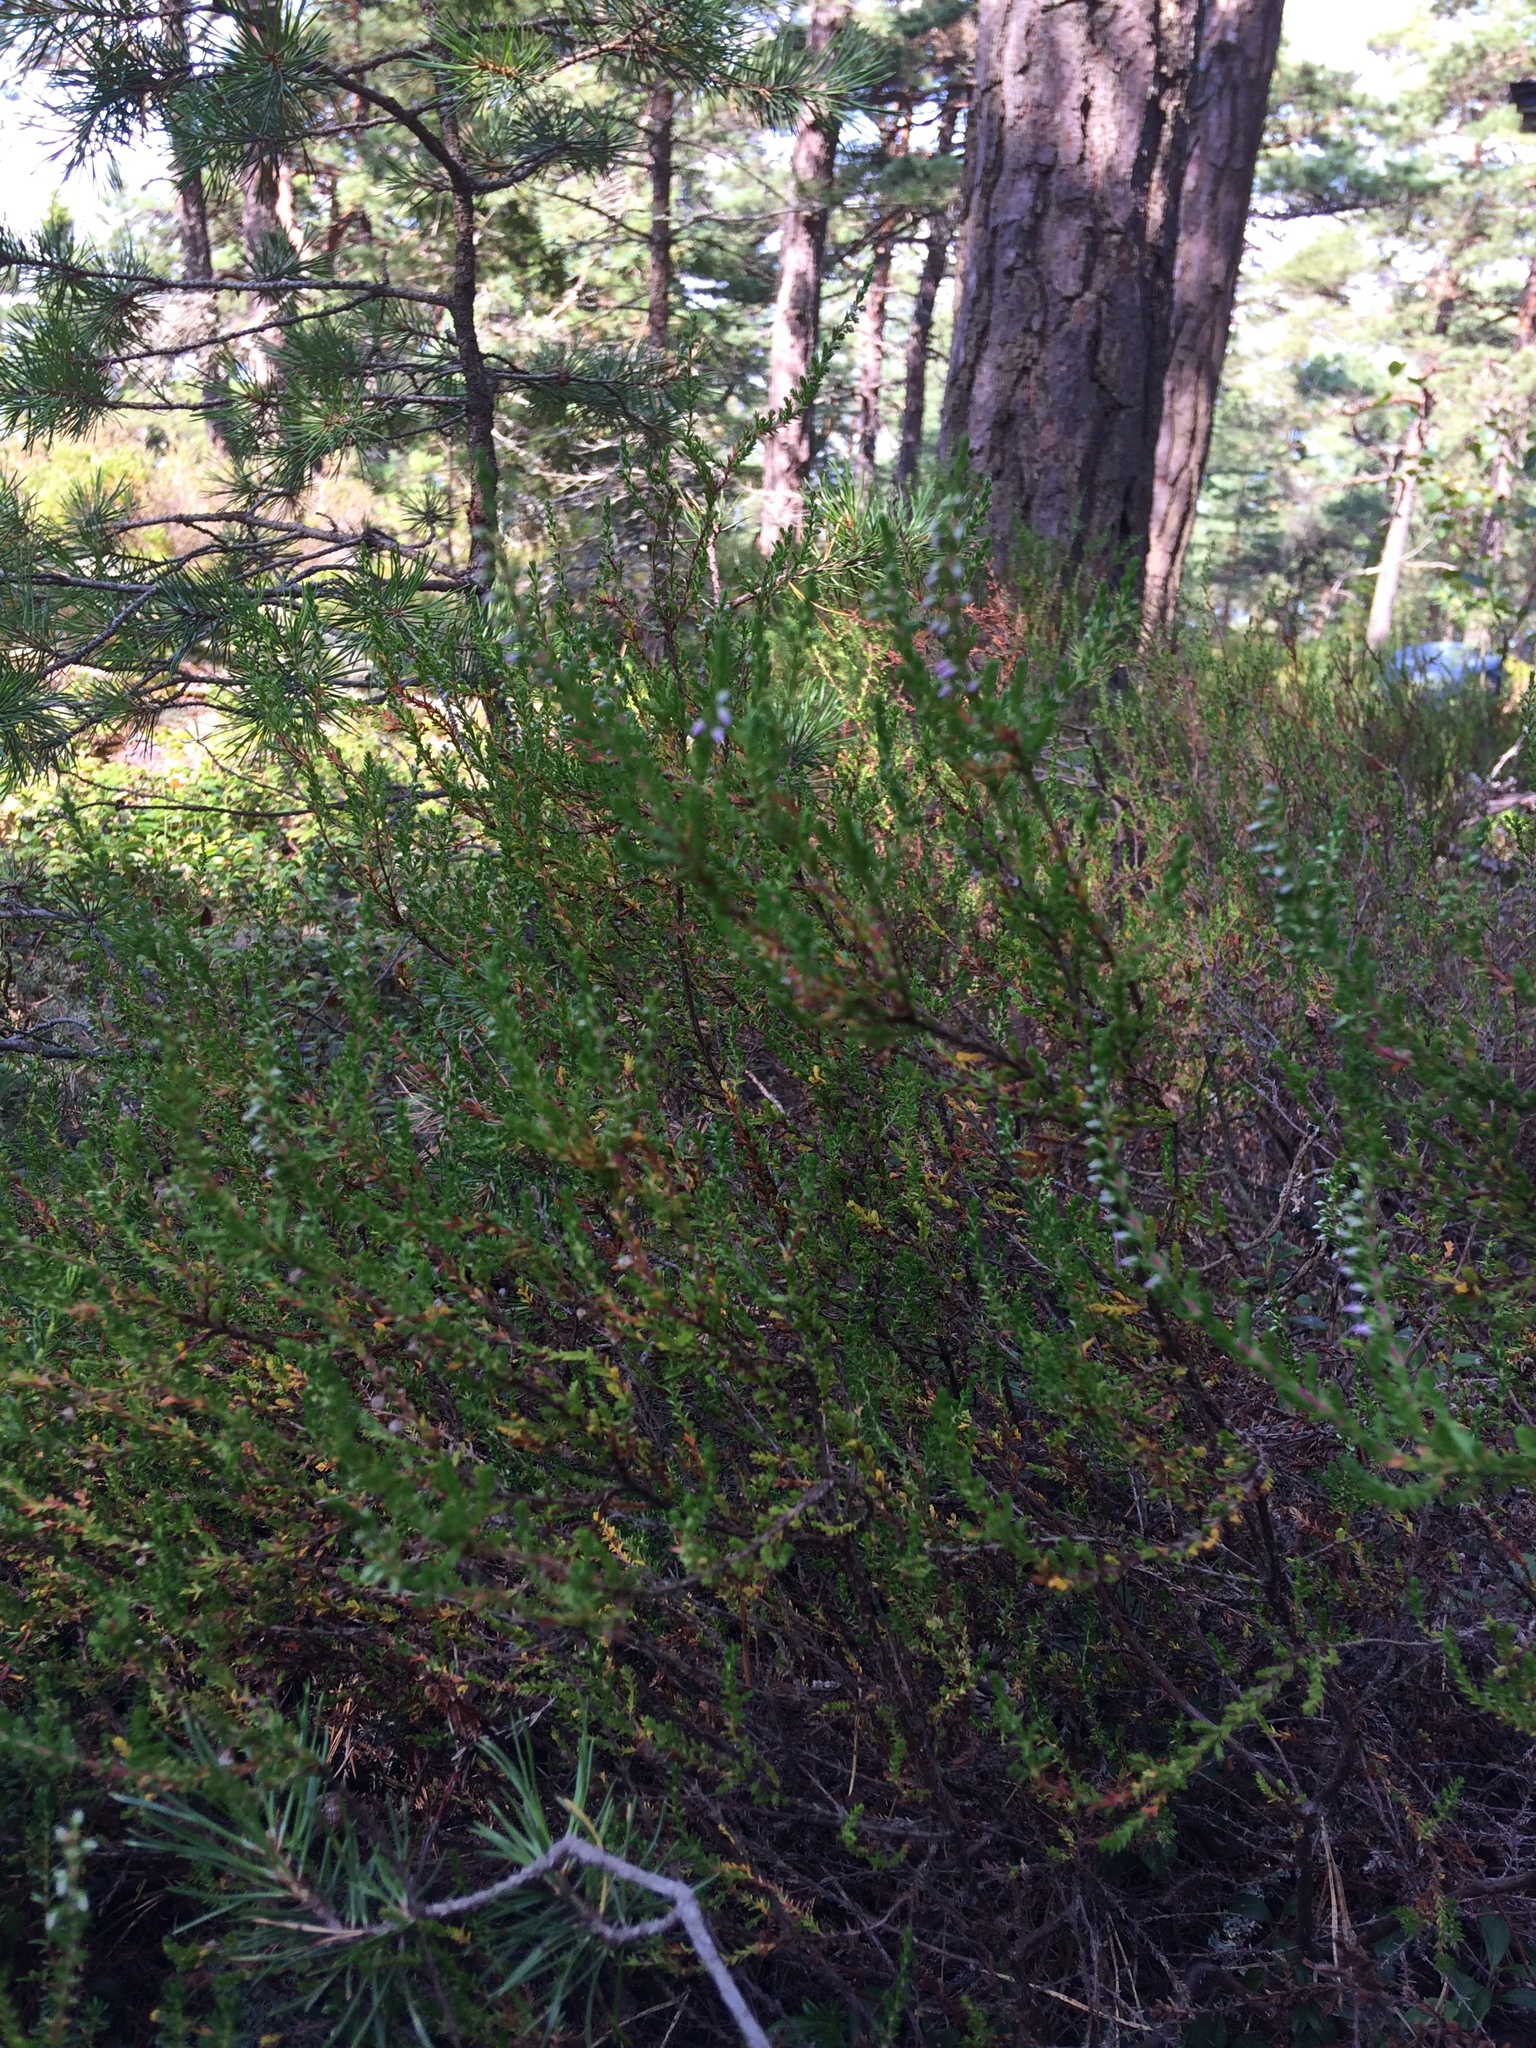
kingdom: Plantae
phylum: Tracheophyta
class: Magnoliopsida
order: Ericales
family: Ericaceae
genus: Calluna
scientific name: Calluna vulgaris
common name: Heather
